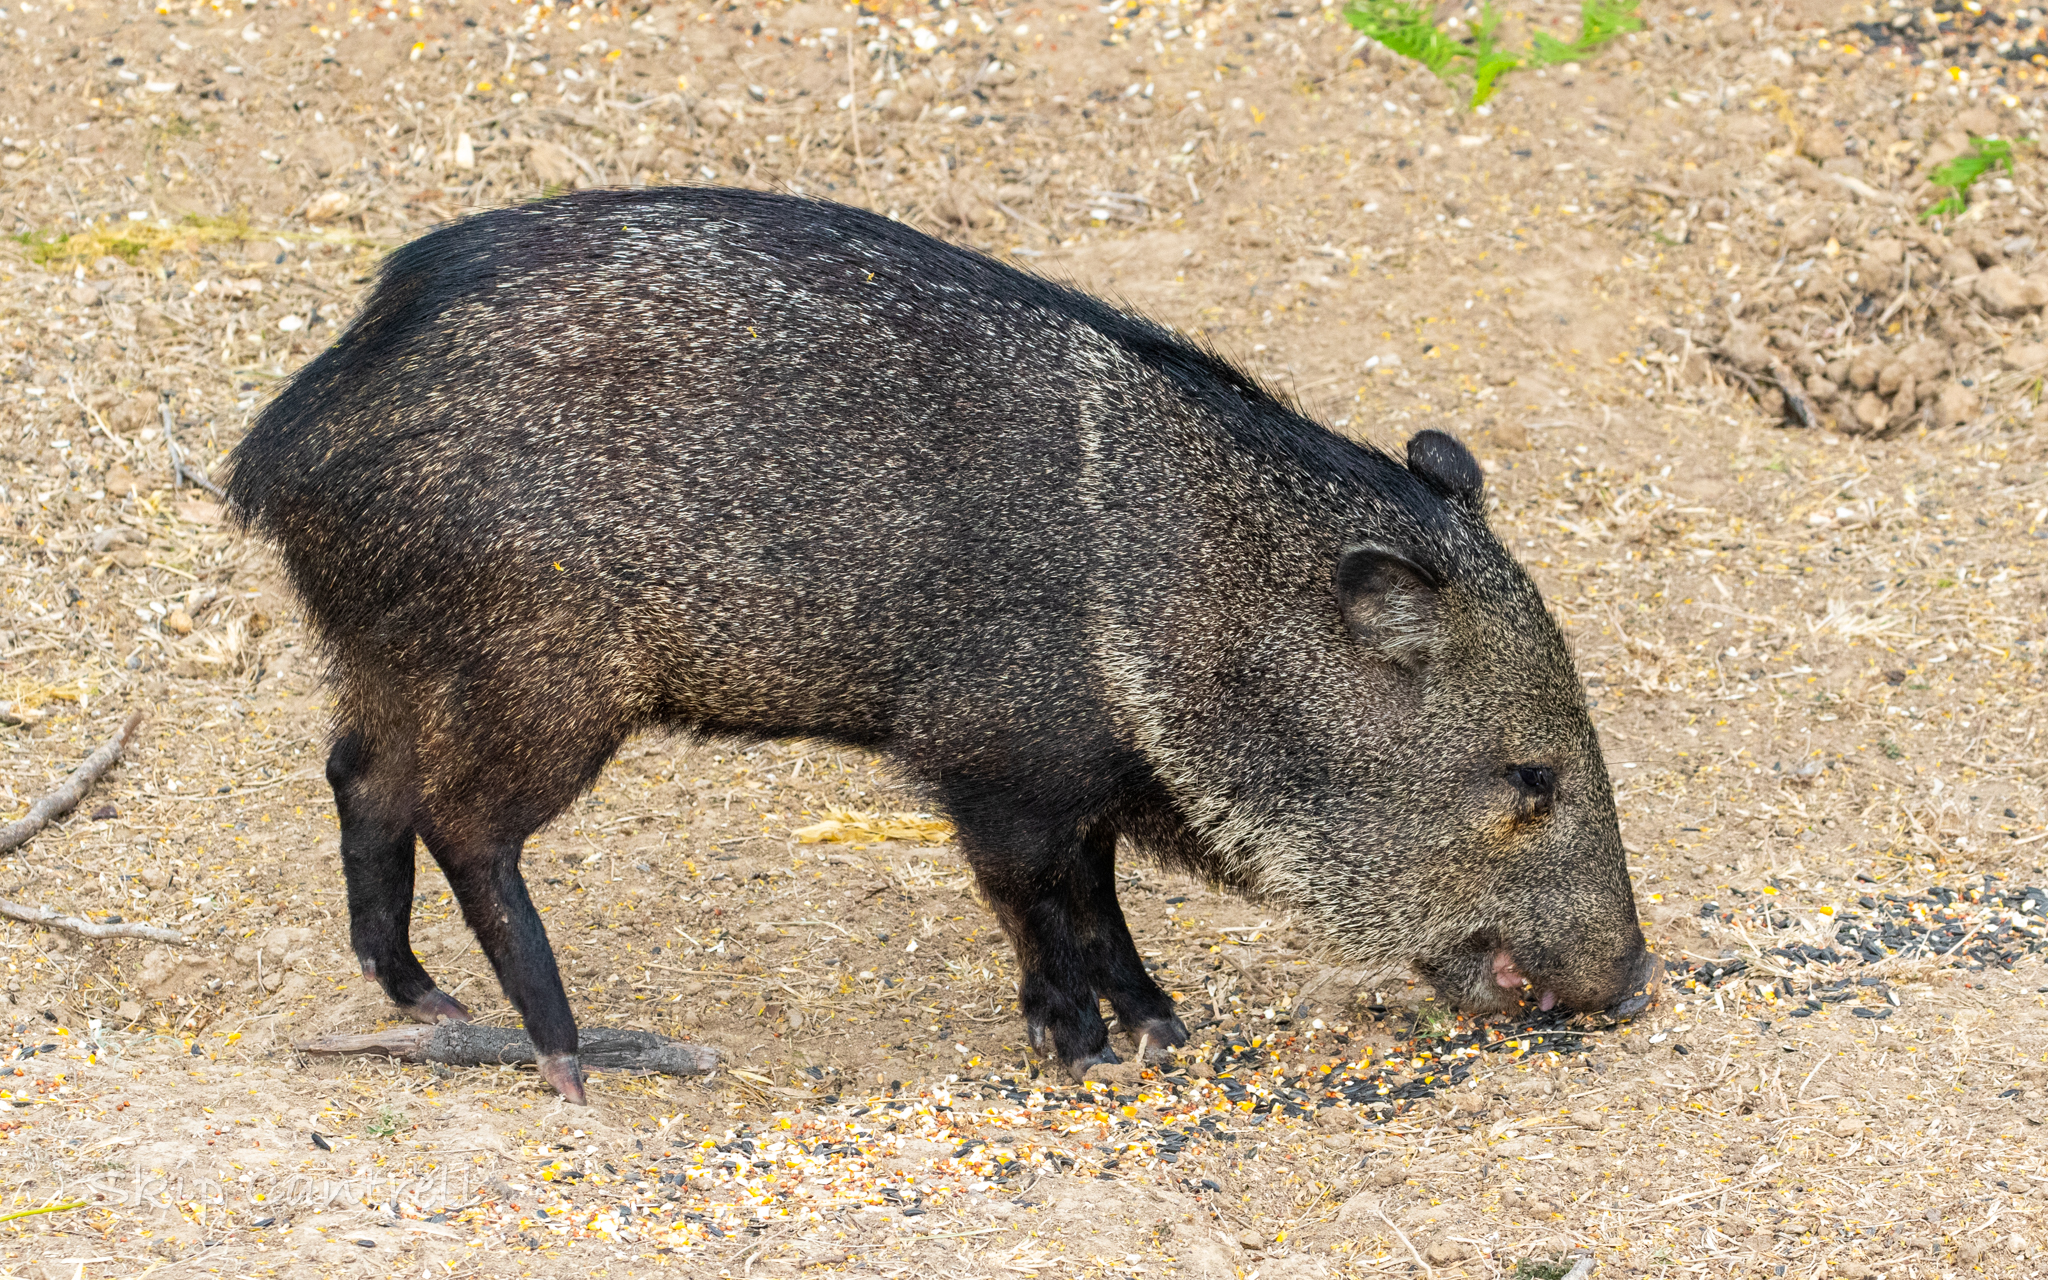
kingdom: Animalia
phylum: Chordata
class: Mammalia
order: Artiodactyla
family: Tayassuidae
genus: Pecari
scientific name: Pecari tajacu
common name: Collared peccary
